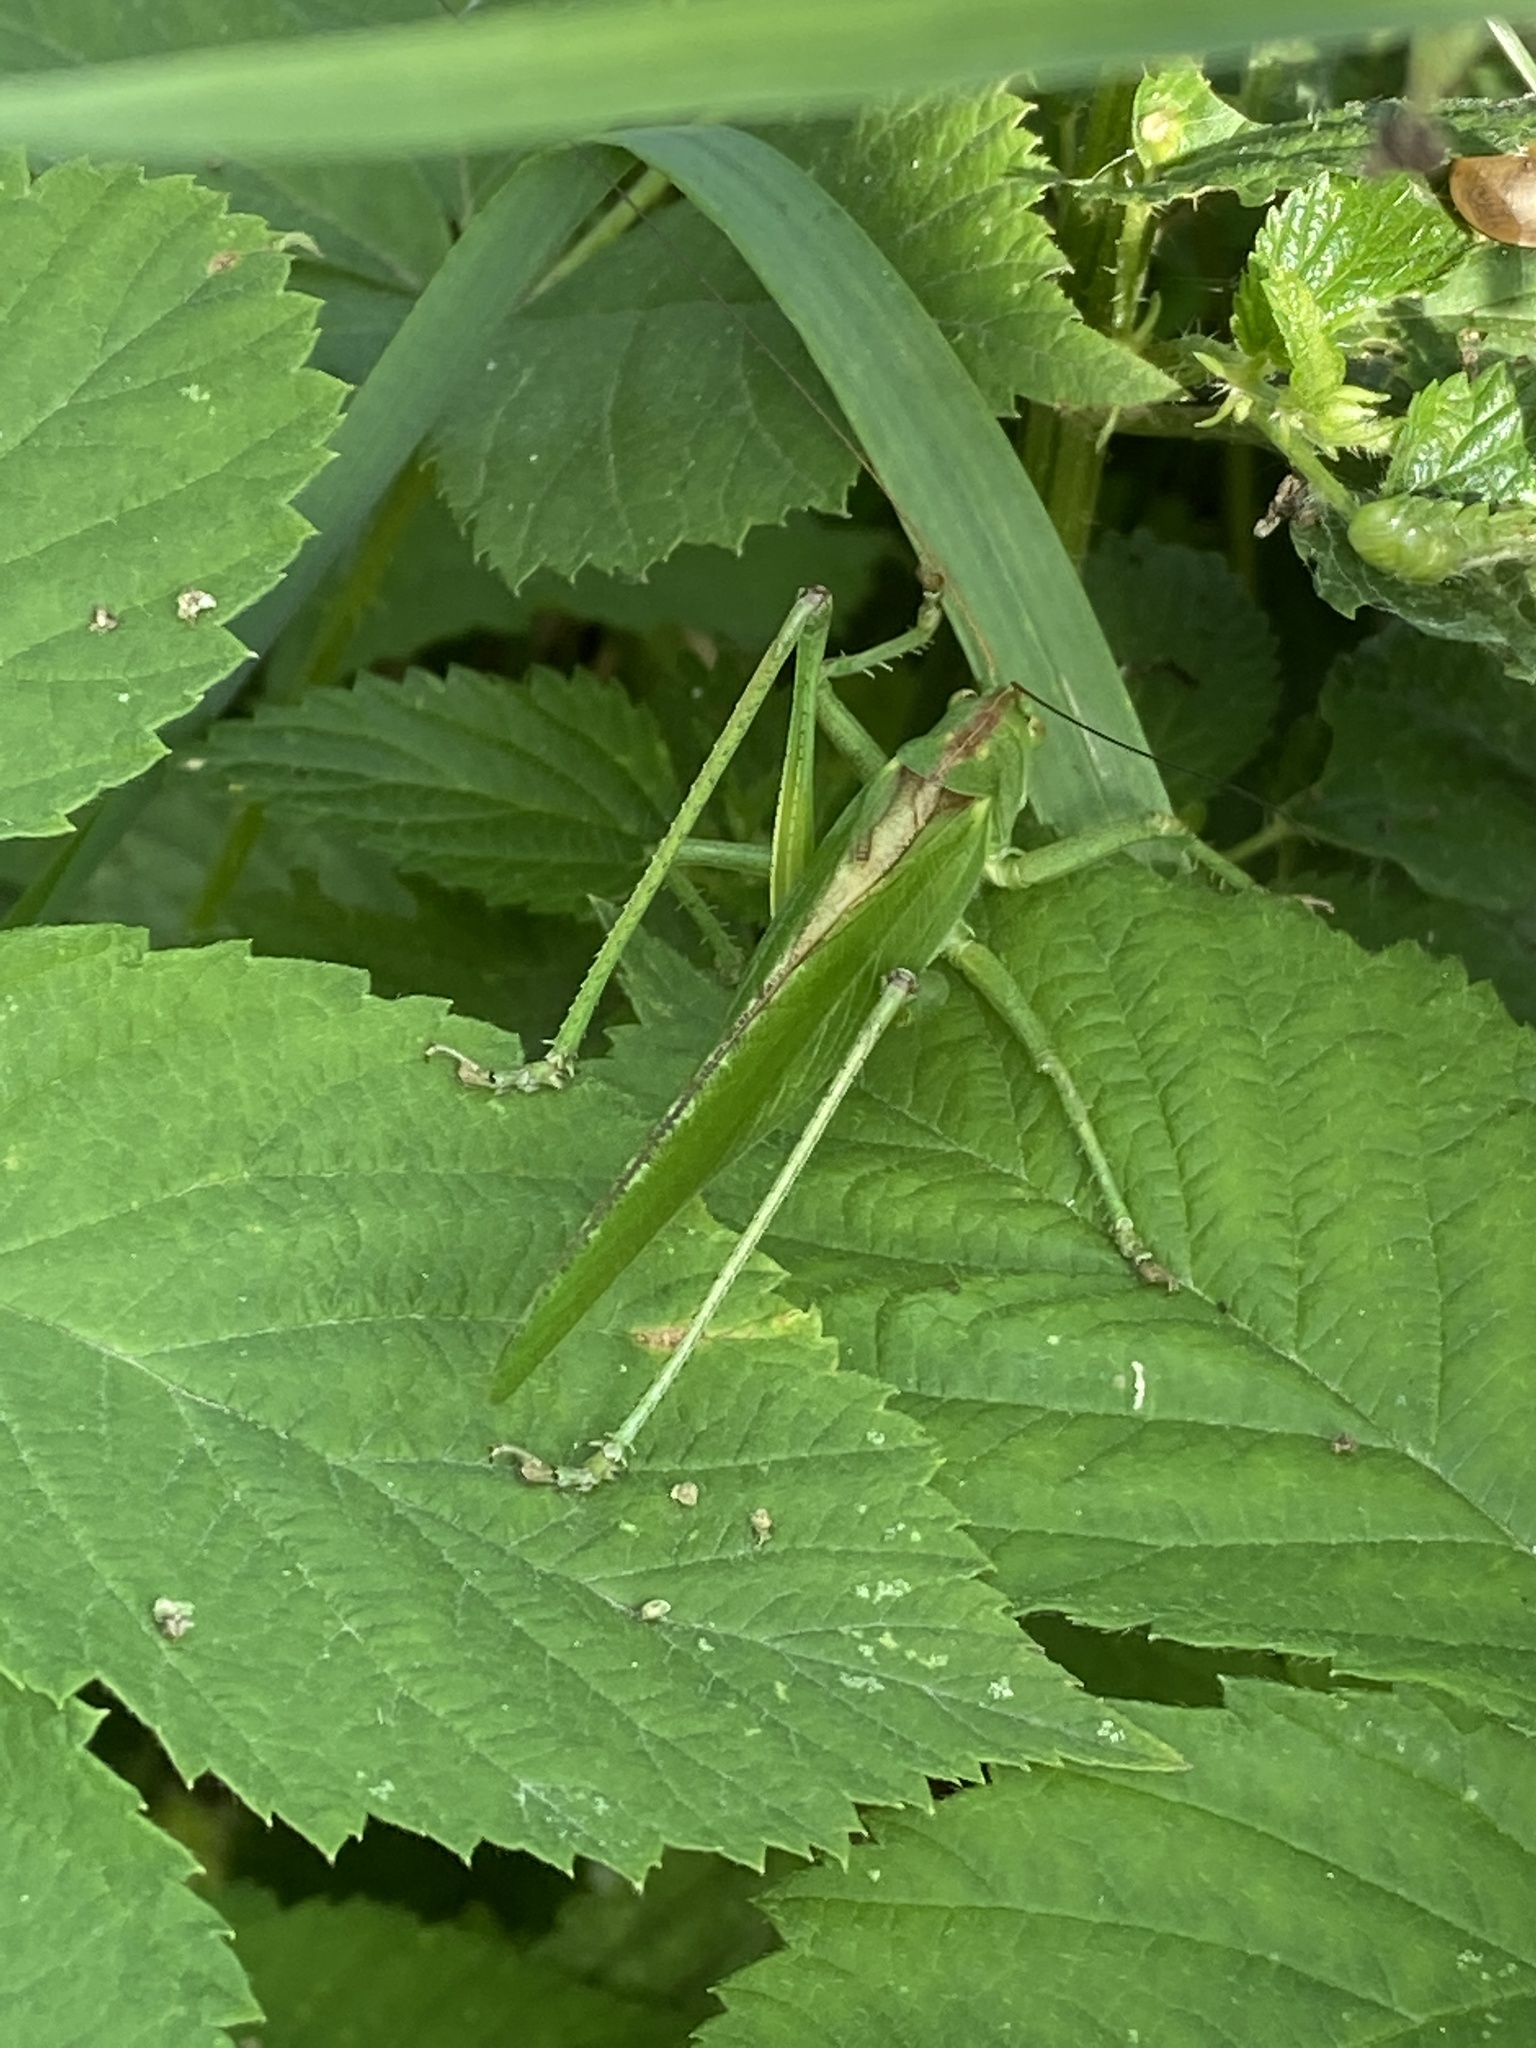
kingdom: Animalia
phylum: Arthropoda
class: Insecta
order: Orthoptera
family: Tettigoniidae
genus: Tettigonia
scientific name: Tettigonia viridissima
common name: Great green bush-cricket
